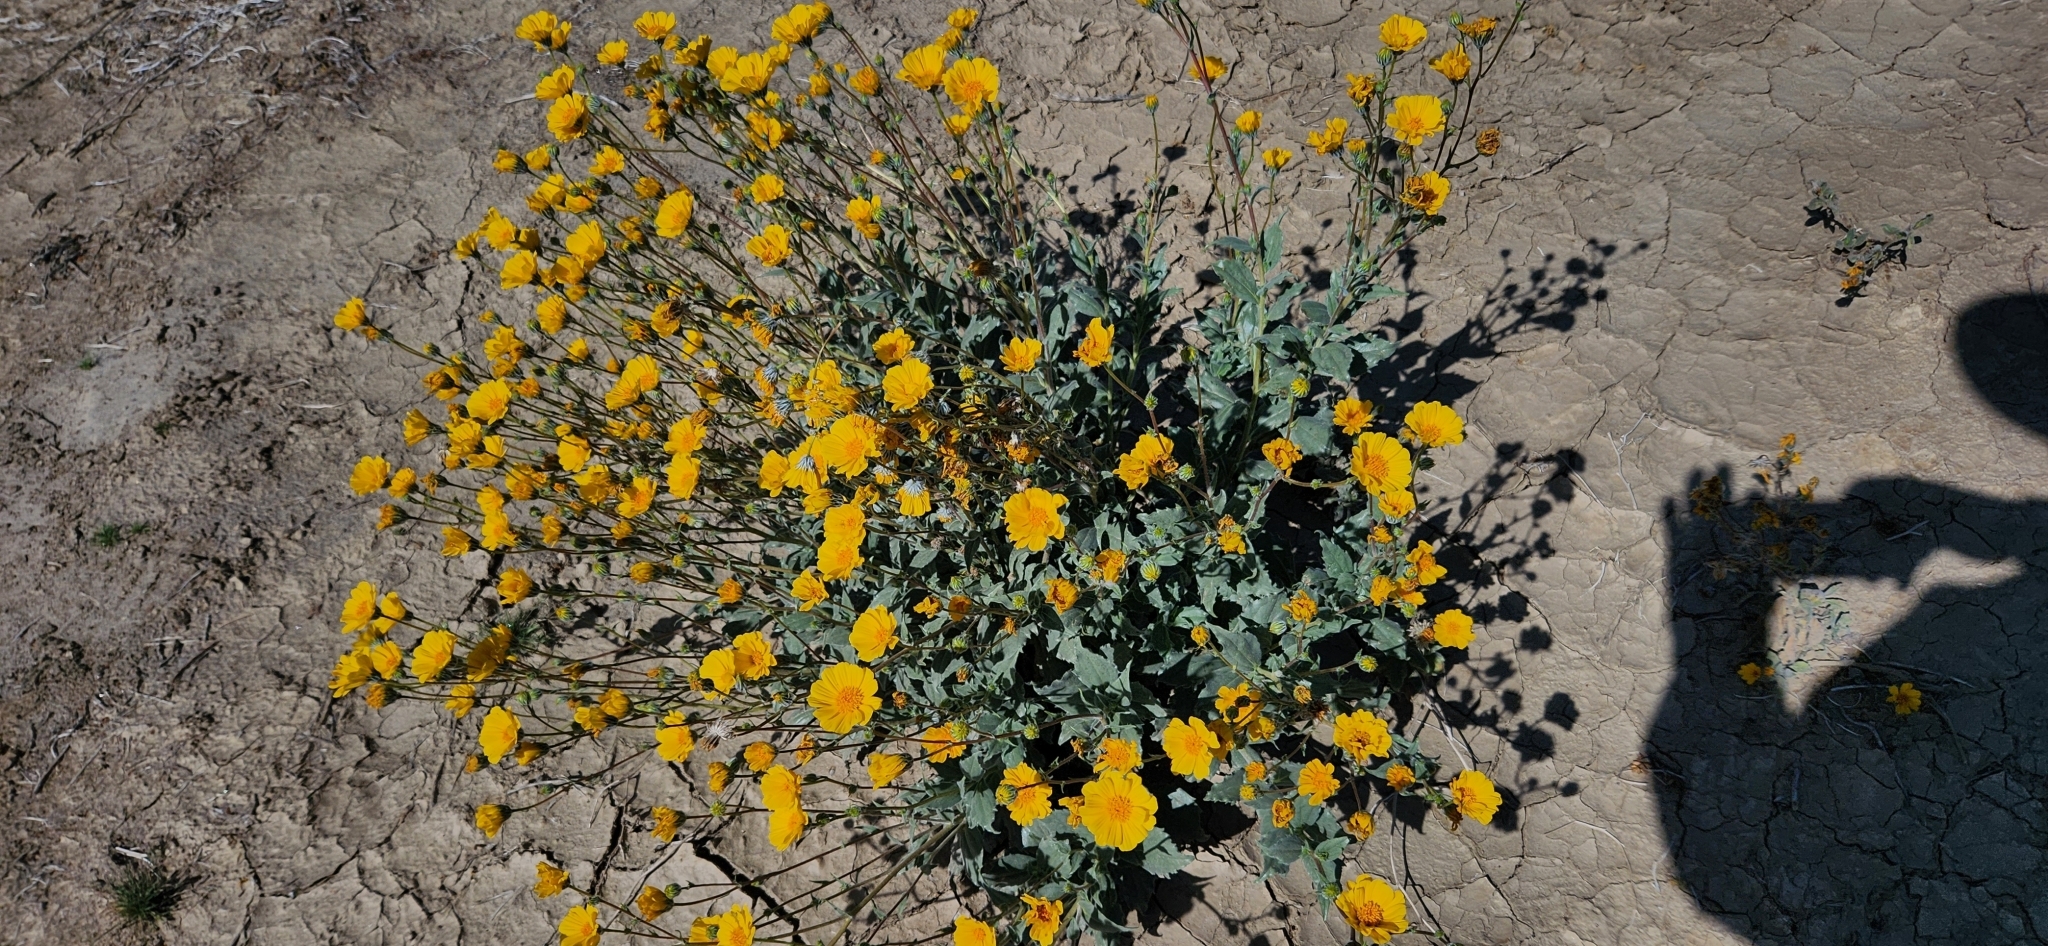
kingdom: Plantae
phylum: Tracheophyta
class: Magnoliopsida
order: Asterales
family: Asteraceae
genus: Geraea
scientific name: Geraea canescens
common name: Desert-gold
